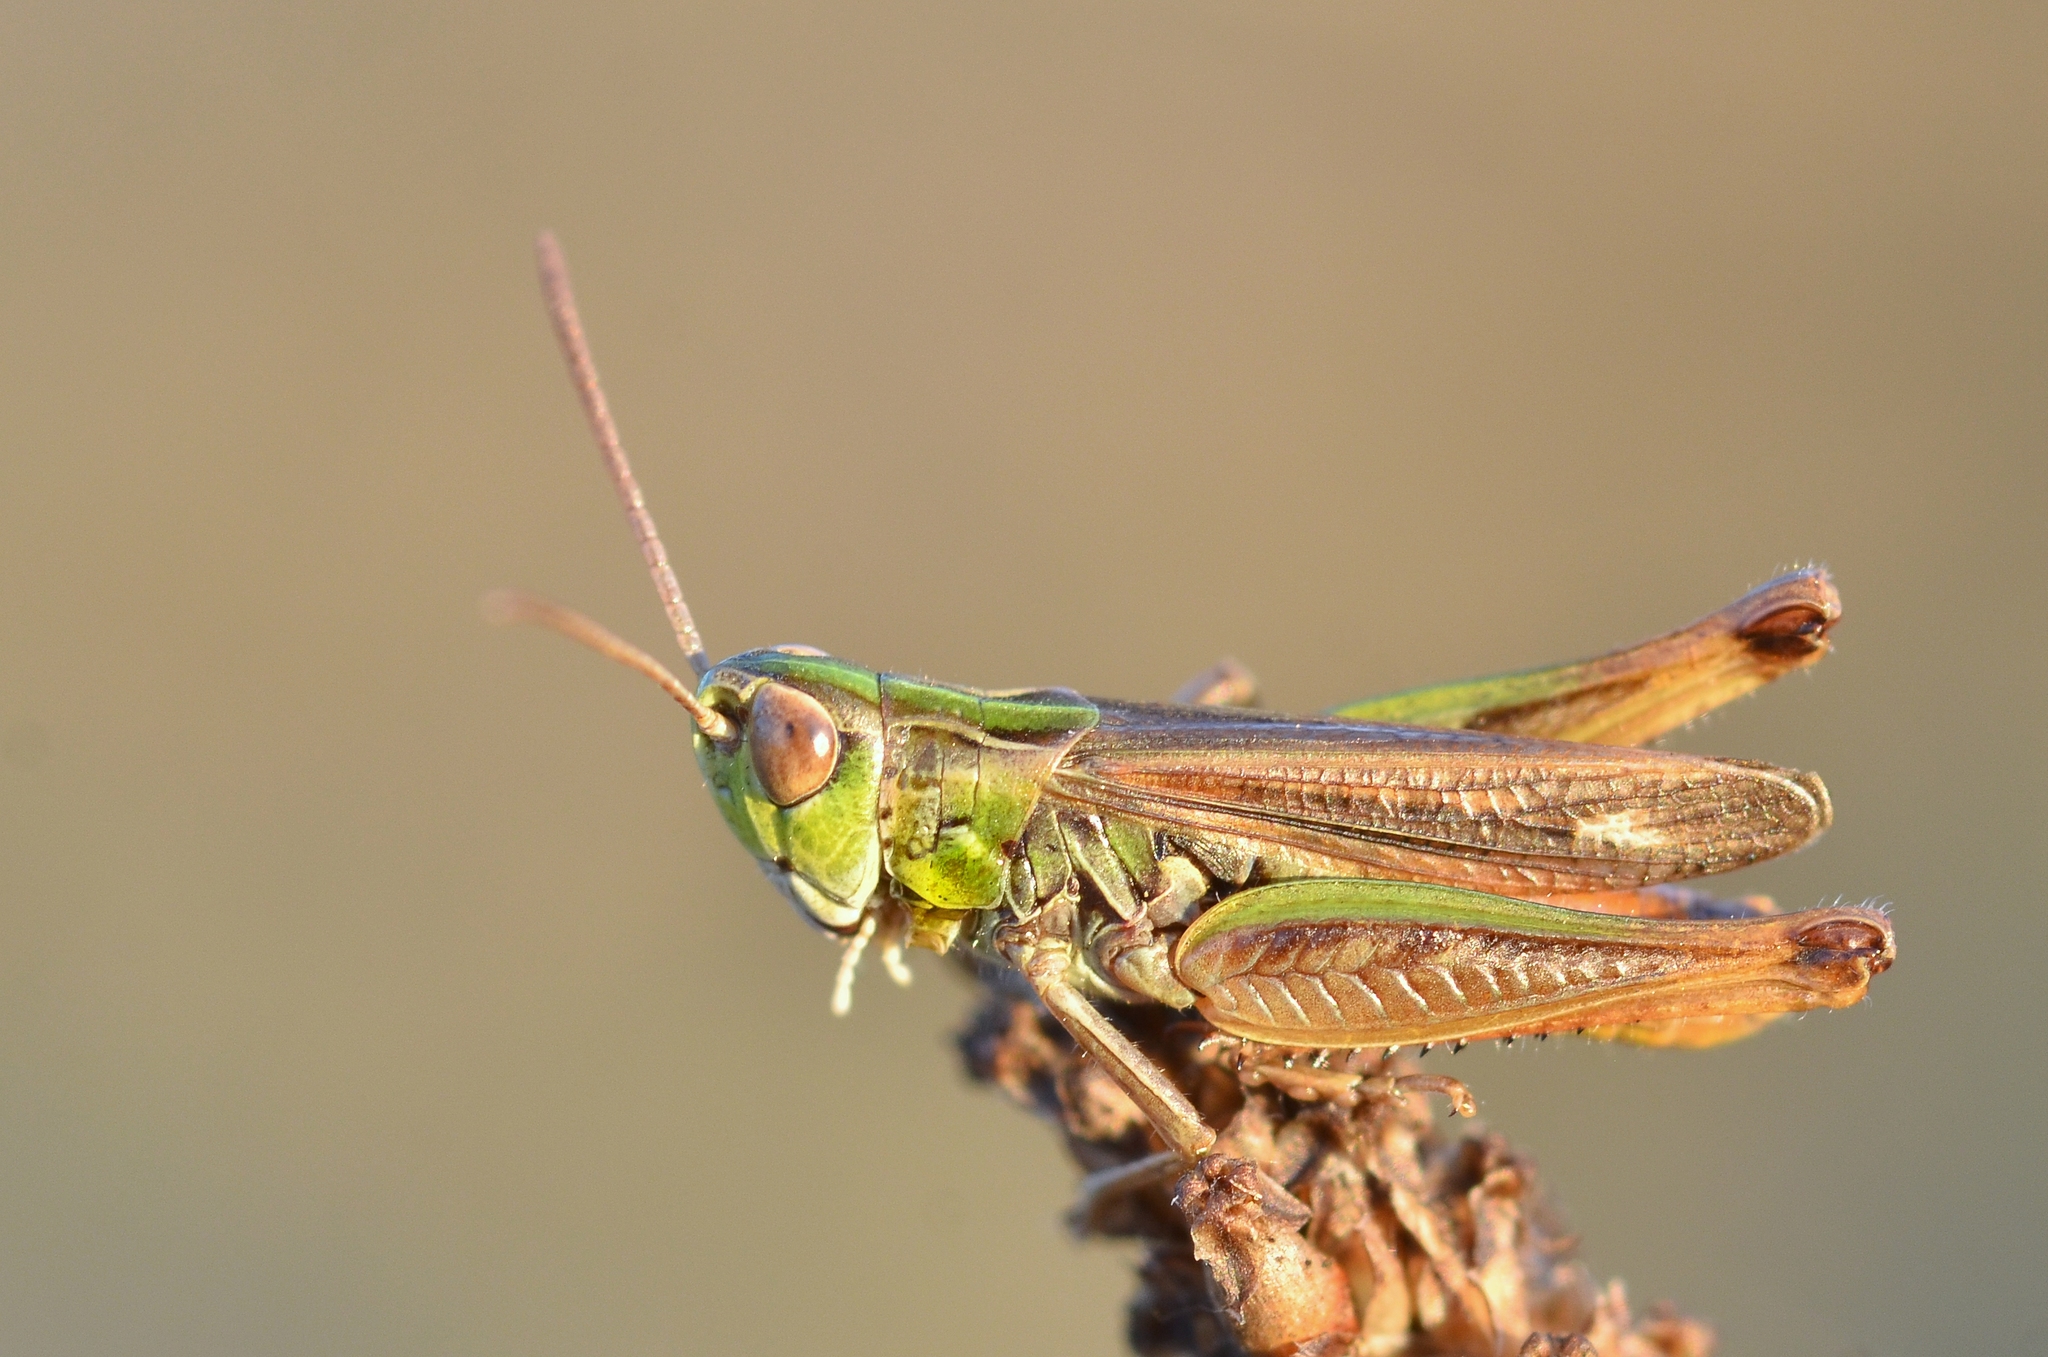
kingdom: Animalia
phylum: Arthropoda
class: Insecta
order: Orthoptera
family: Acrididae
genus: Stenobothrus
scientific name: Stenobothrus stigmaticus
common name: Lesser mottled grasshopper
